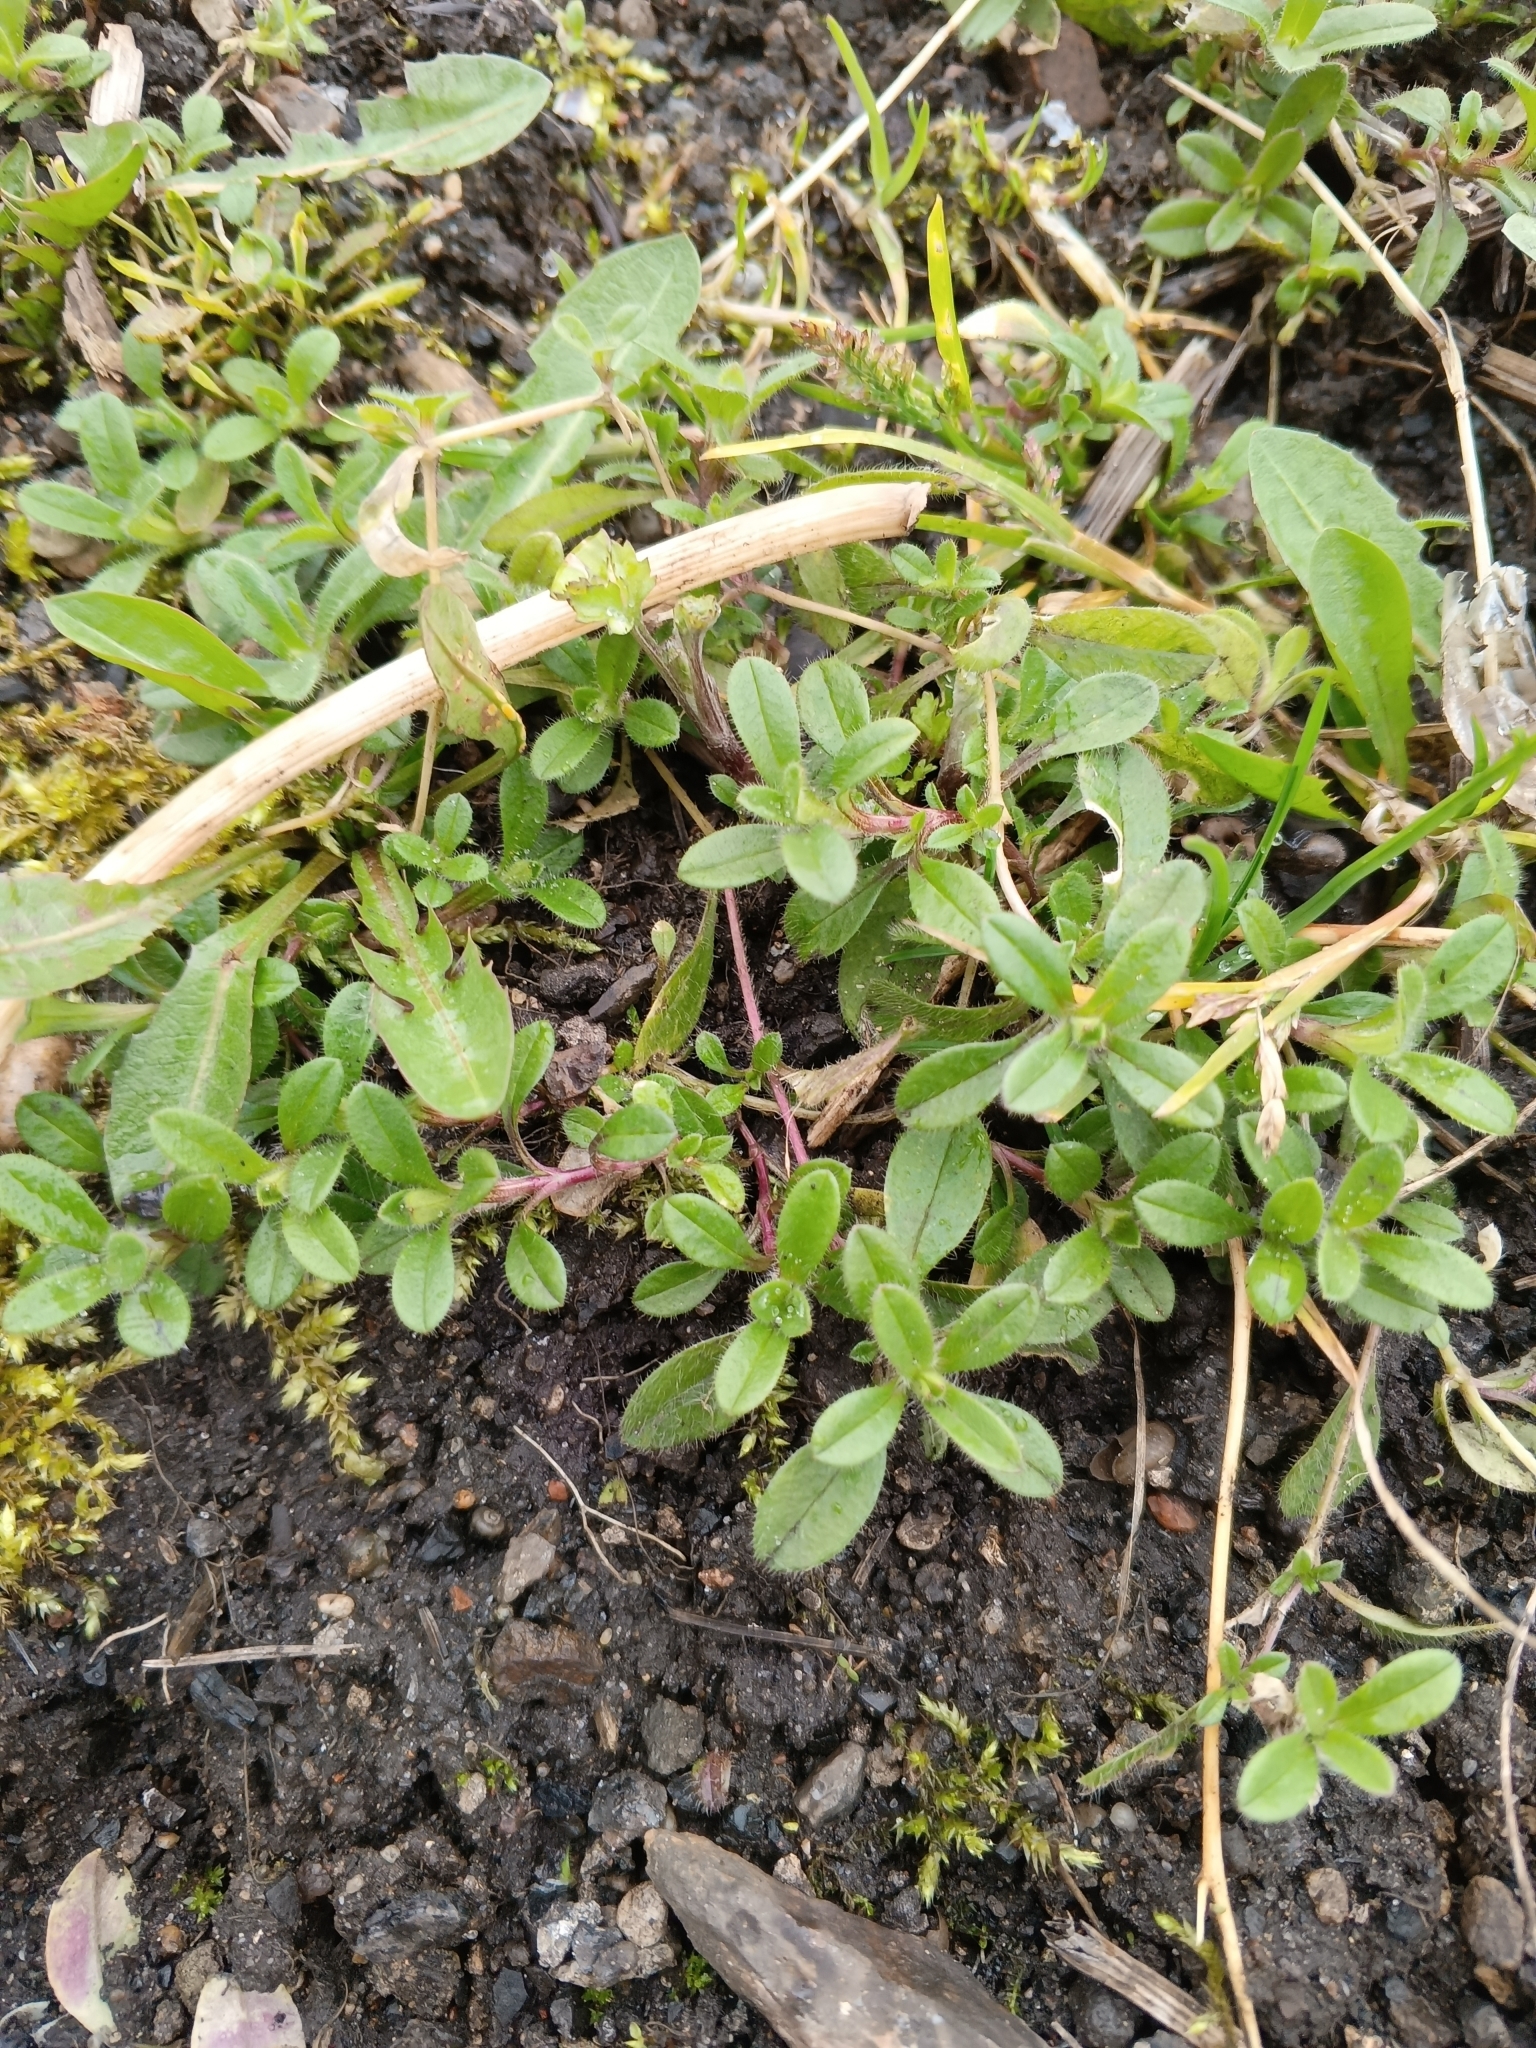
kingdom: Plantae
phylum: Tracheophyta
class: Magnoliopsida
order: Caryophyllales
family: Caryophyllaceae
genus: Cerastium
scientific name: Cerastium holosteoides
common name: Big chickweed
